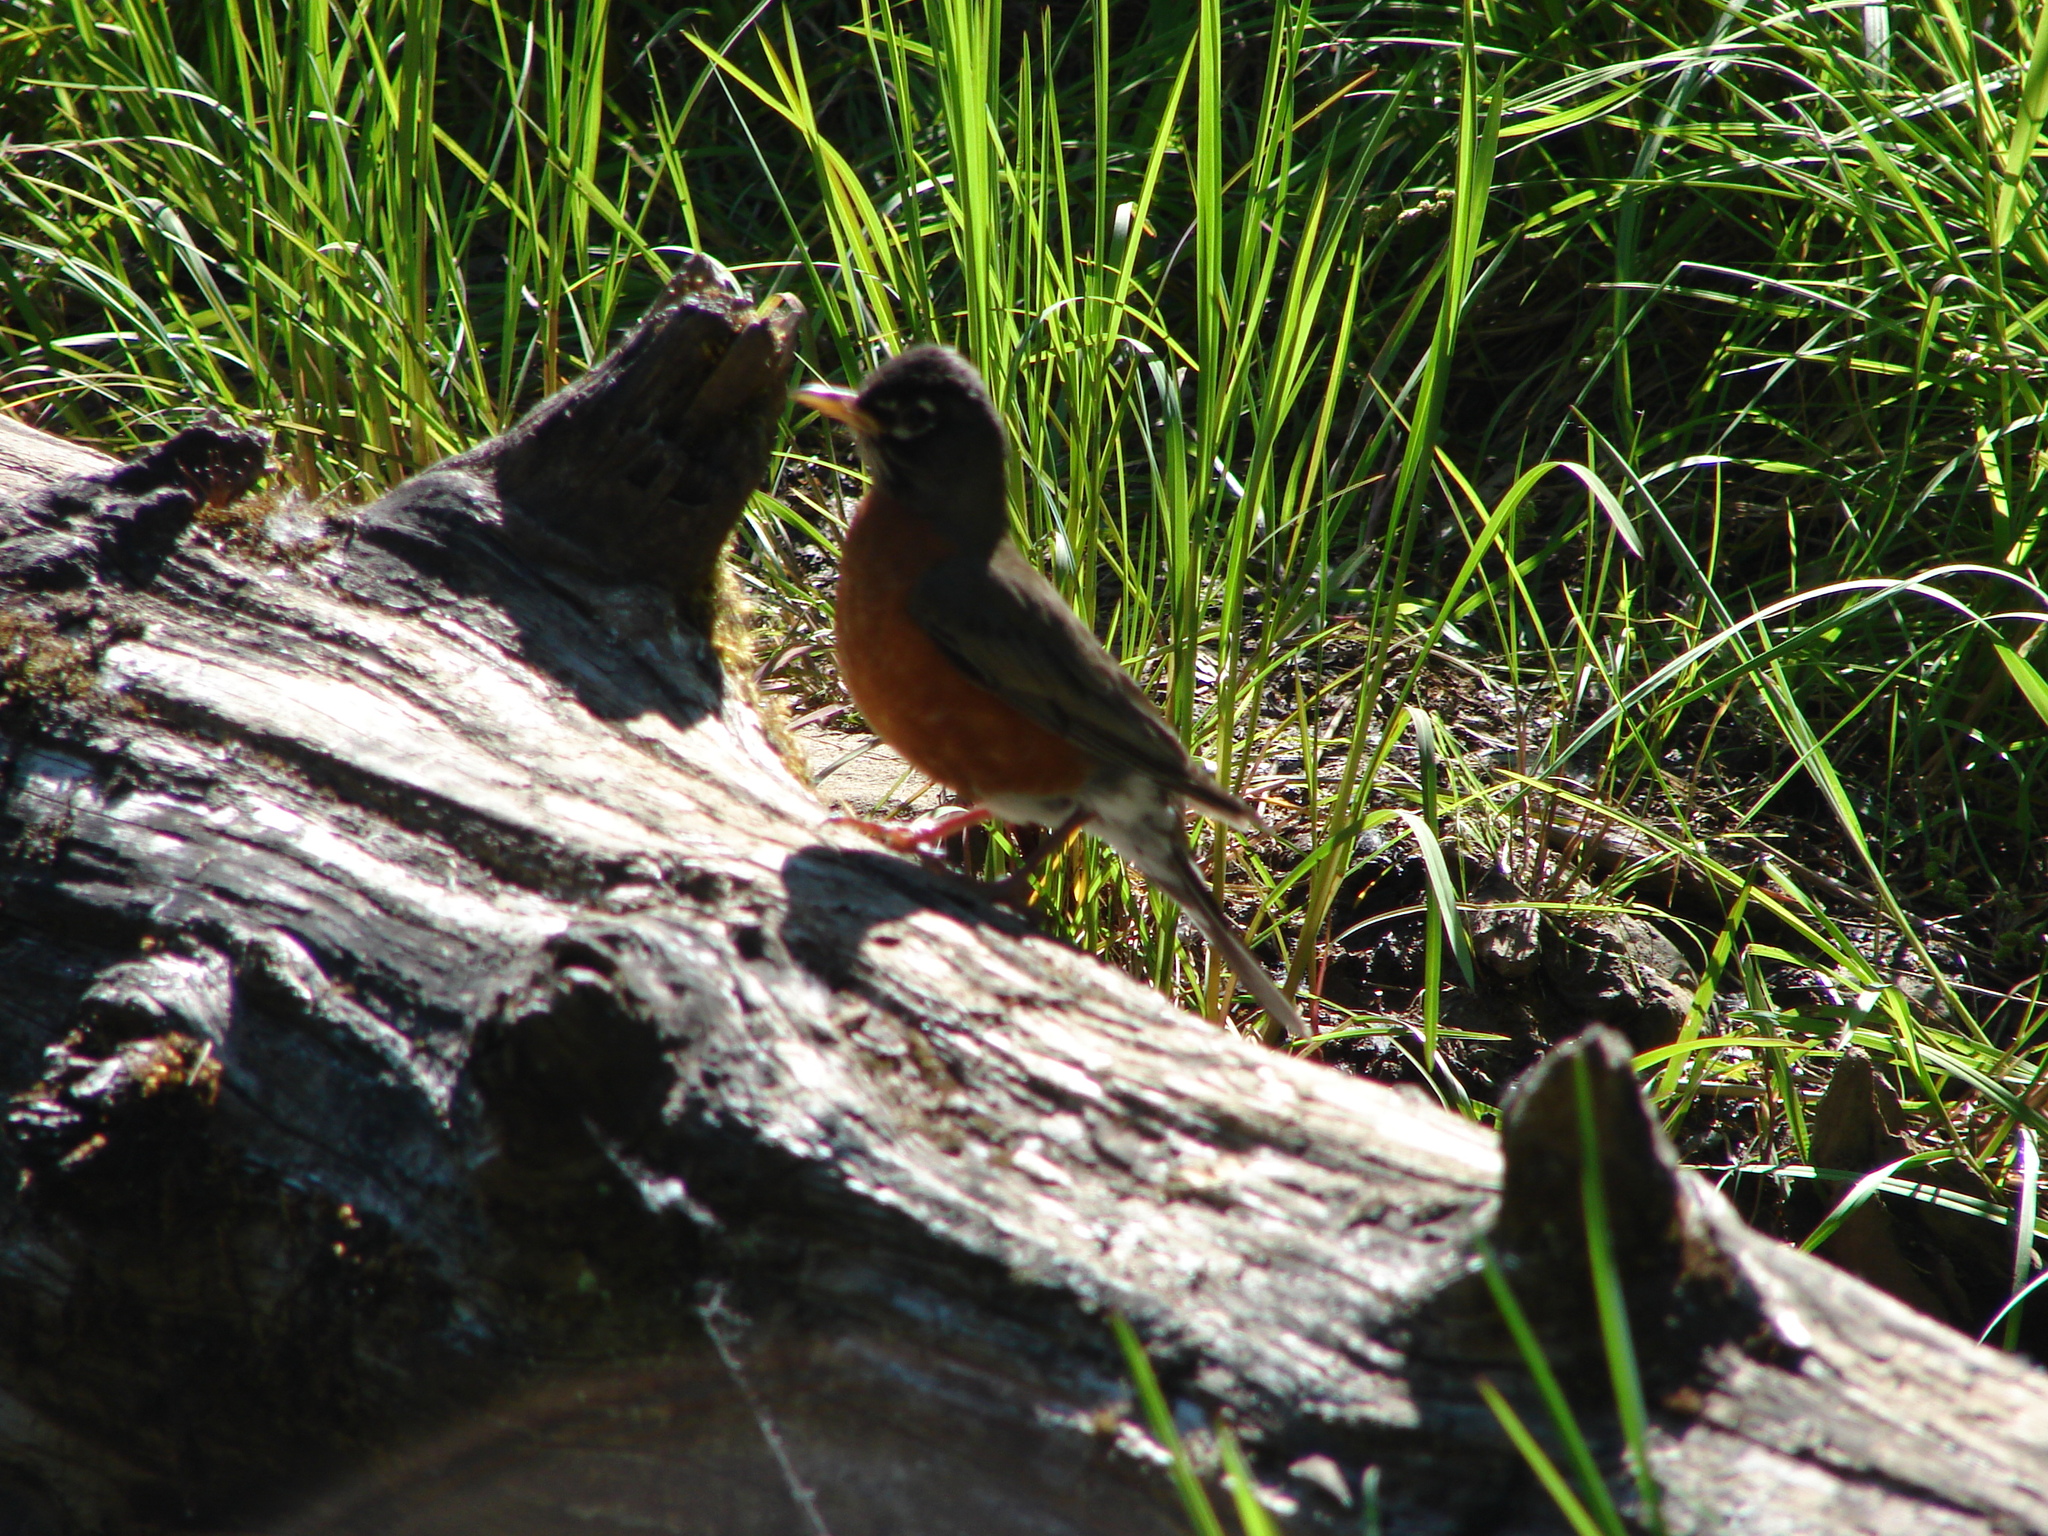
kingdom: Animalia
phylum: Chordata
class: Aves
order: Passeriformes
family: Turdidae
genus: Turdus
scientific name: Turdus migratorius
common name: American robin
